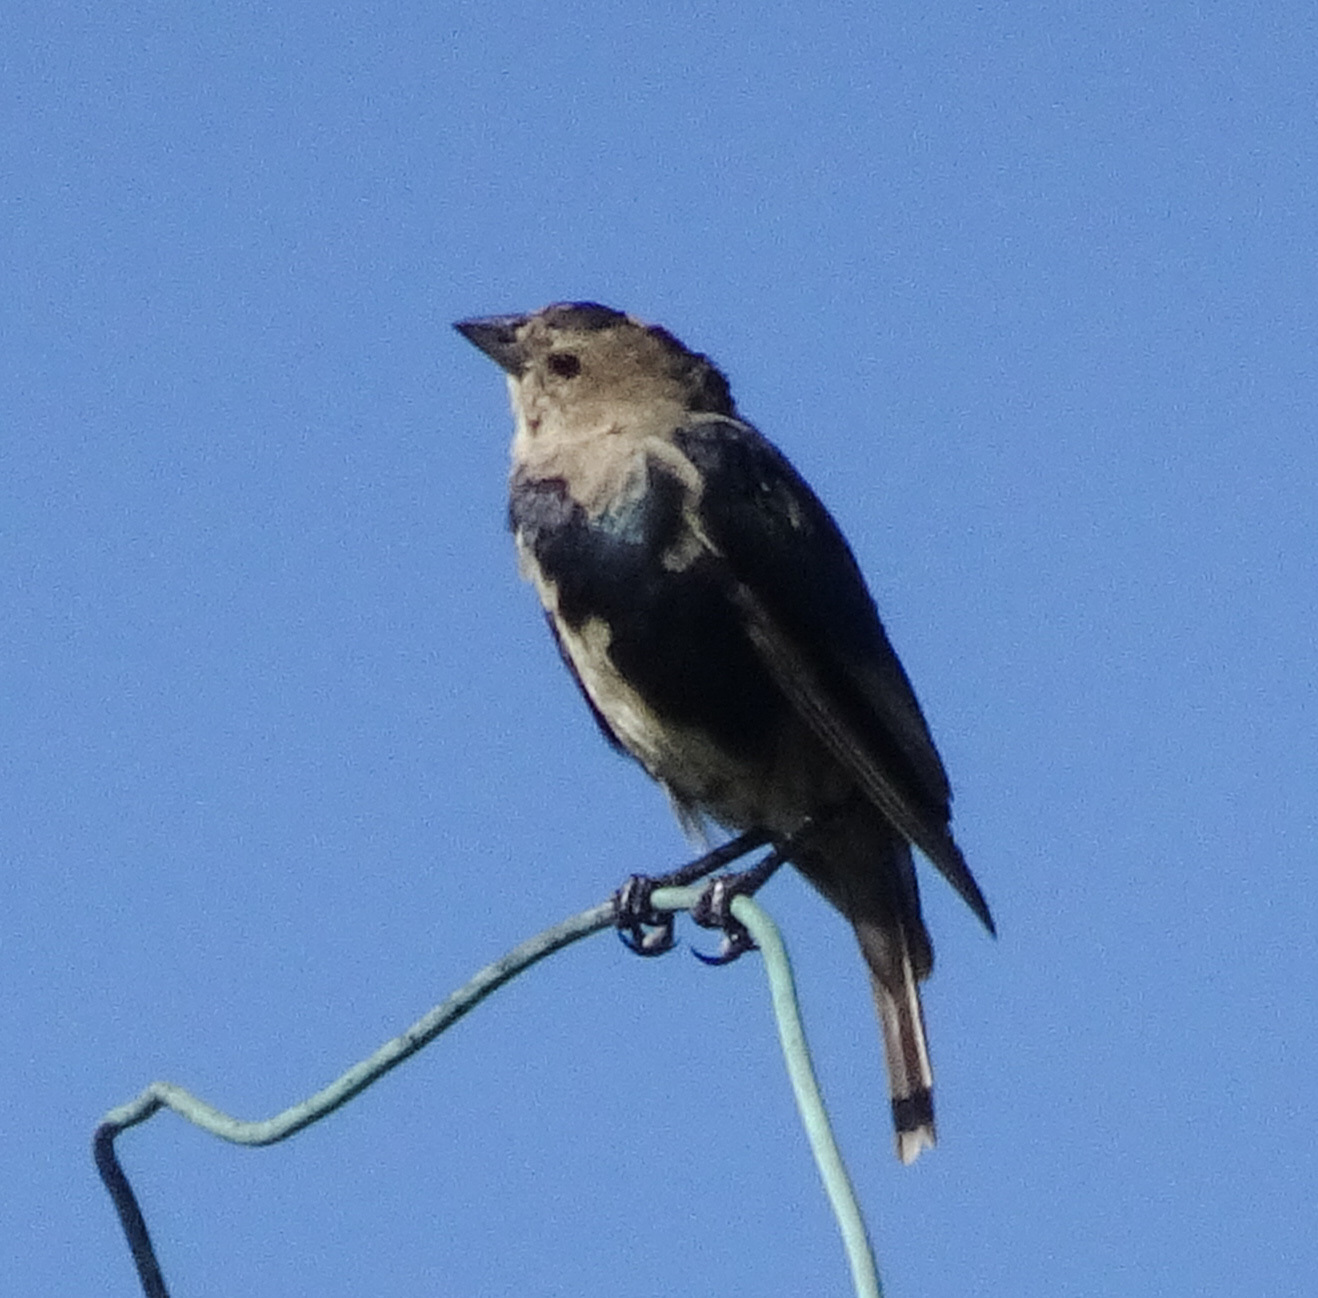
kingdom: Animalia
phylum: Chordata
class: Aves
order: Passeriformes
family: Icteridae
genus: Molothrus
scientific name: Molothrus ater
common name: Brown-headed cowbird
